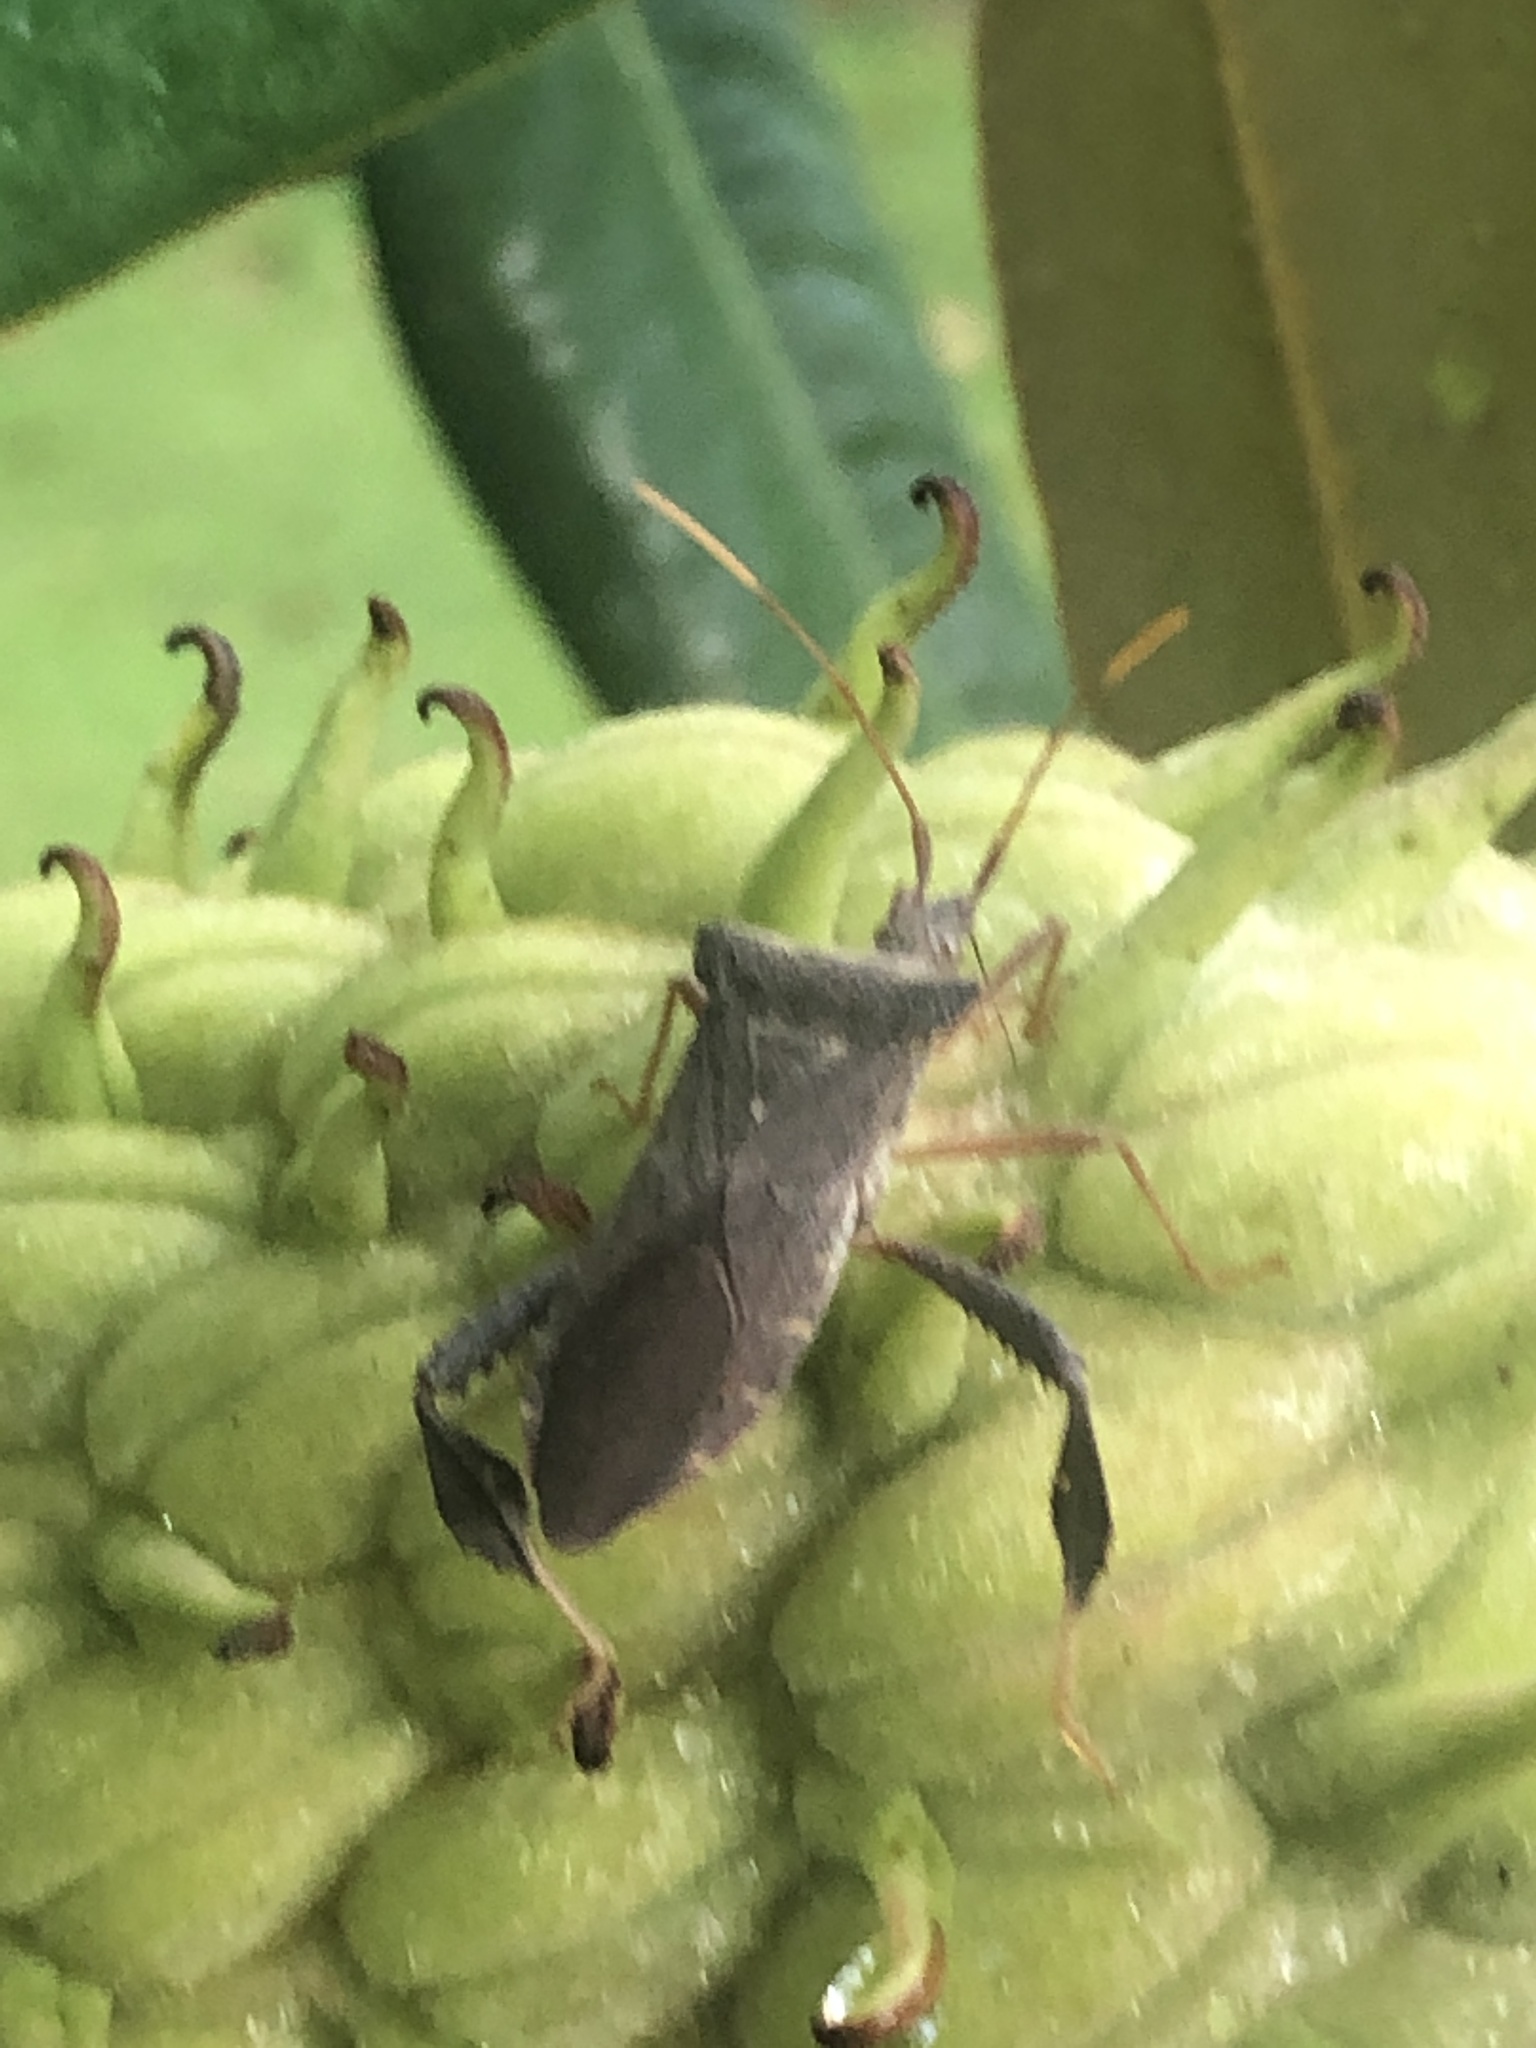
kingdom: Animalia
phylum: Arthropoda
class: Insecta
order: Hemiptera
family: Coreidae
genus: Leptoglossus
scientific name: Leptoglossus fulvicornis
